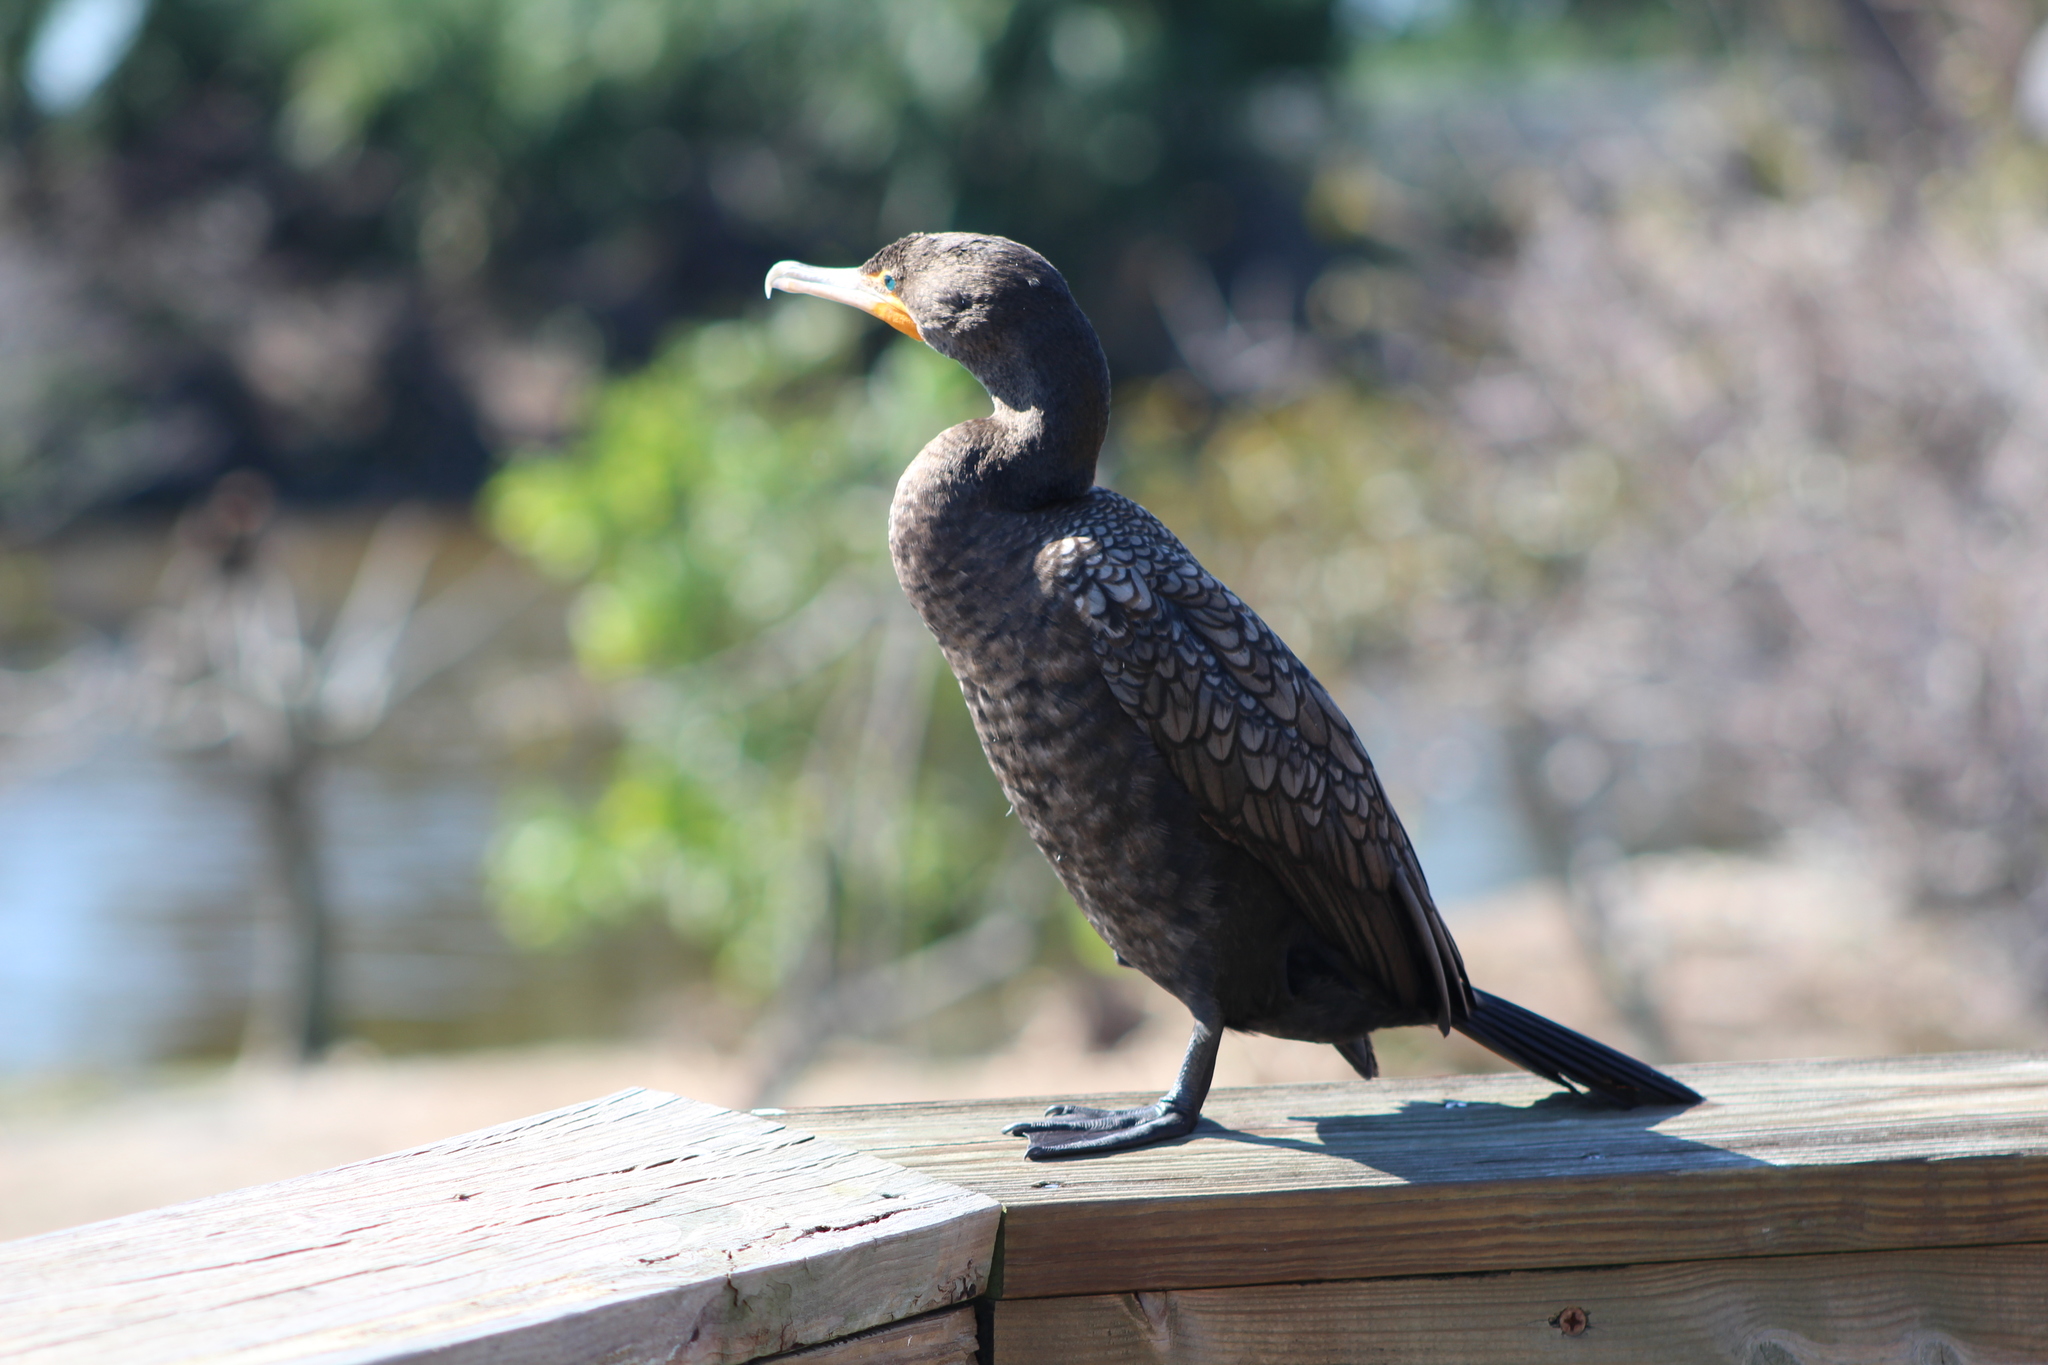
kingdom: Animalia
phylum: Chordata
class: Aves
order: Suliformes
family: Phalacrocoracidae
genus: Phalacrocorax
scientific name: Phalacrocorax auritus
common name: Double-crested cormorant
